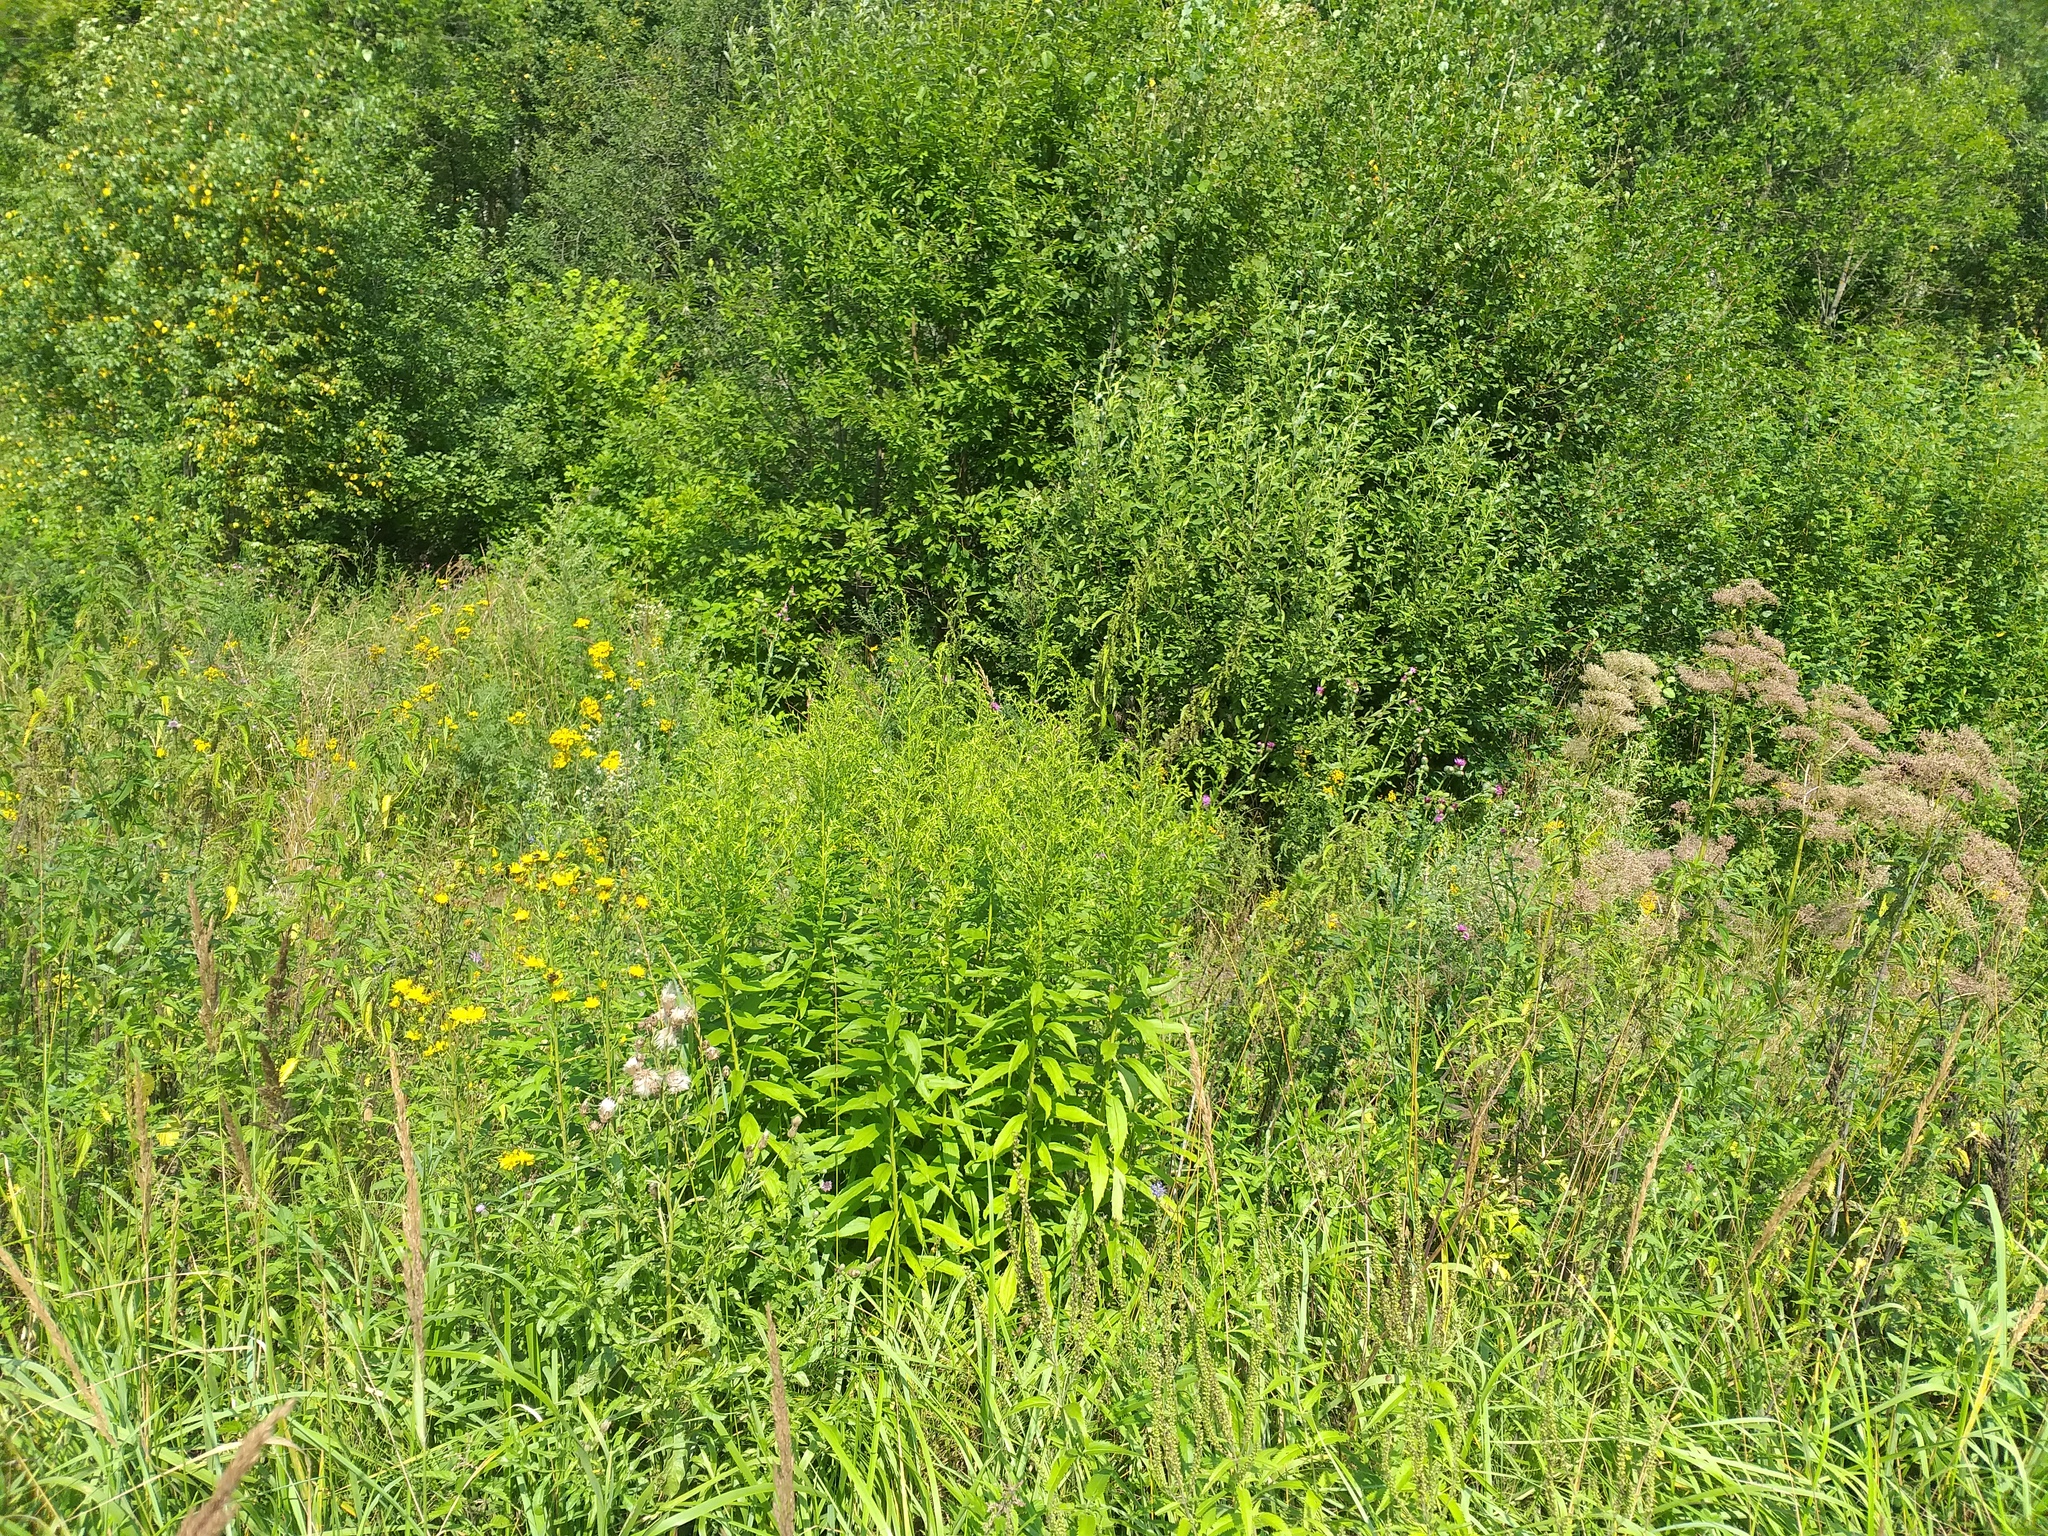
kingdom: Plantae
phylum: Tracheophyta
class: Magnoliopsida
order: Asterales
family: Asteraceae
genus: Solidago
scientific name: Solidago canadensis
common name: Canada goldenrod
